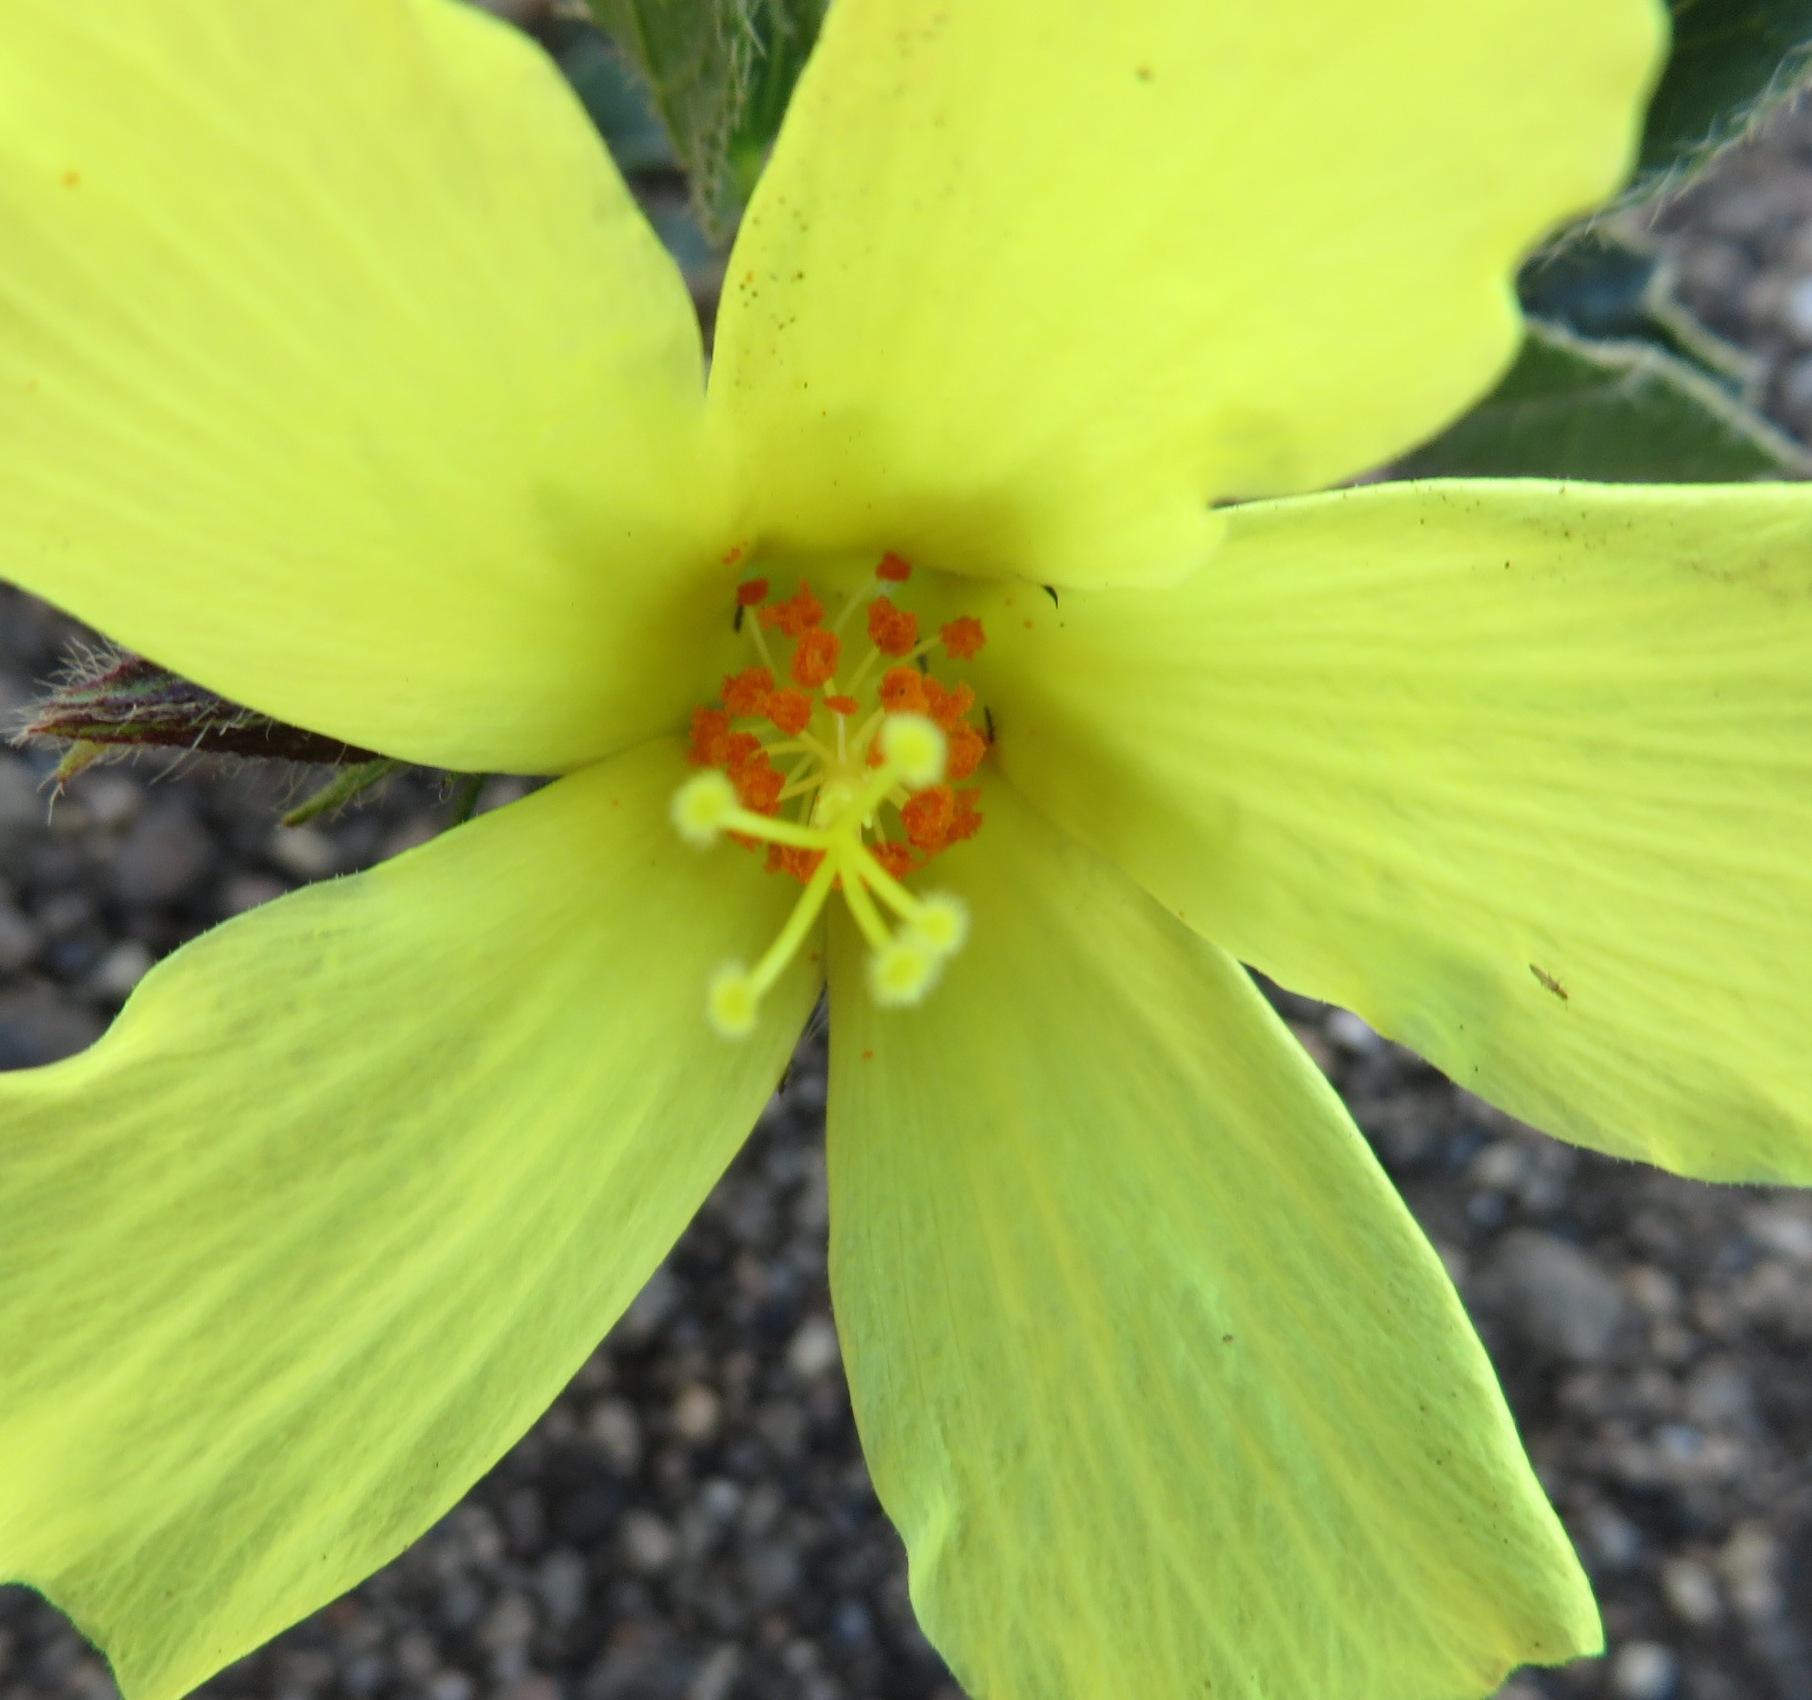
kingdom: Plantae
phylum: Tracheophyta
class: Magnoliopsida
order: Malvales
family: Malvaceae
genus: Hibiscus
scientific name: Hibiscus aethiopicus
